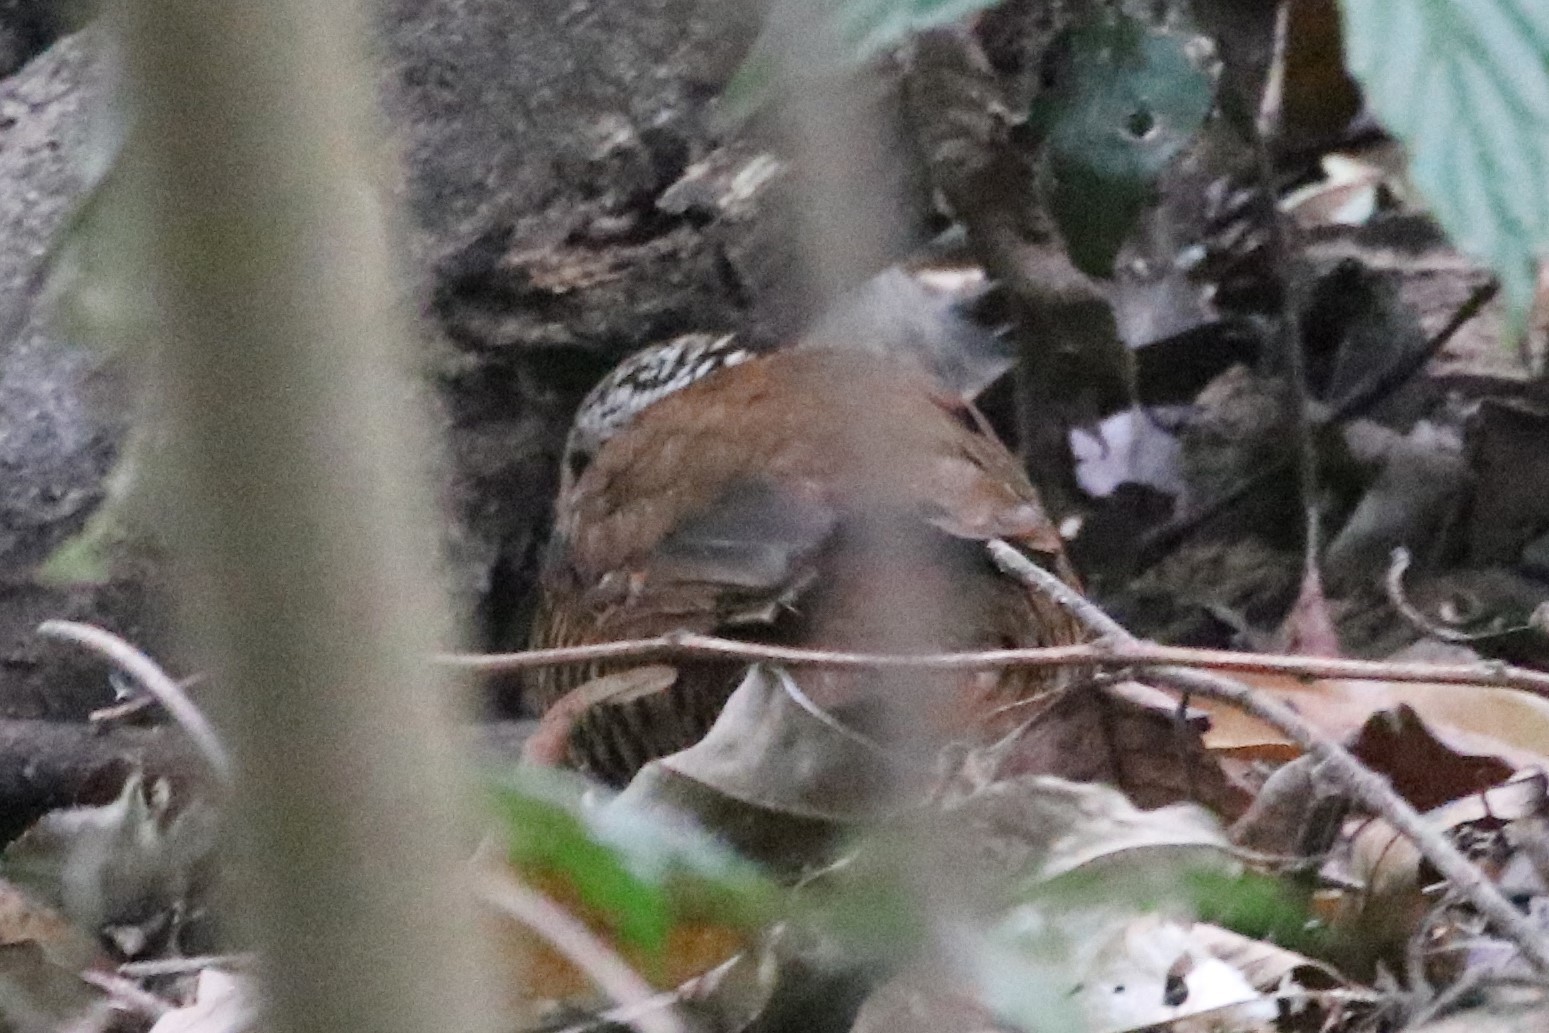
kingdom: Animalia
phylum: Chordata
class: Aves
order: Passeriformes
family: Pittidae
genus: Anthocincla
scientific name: Anthocincla phayrei
